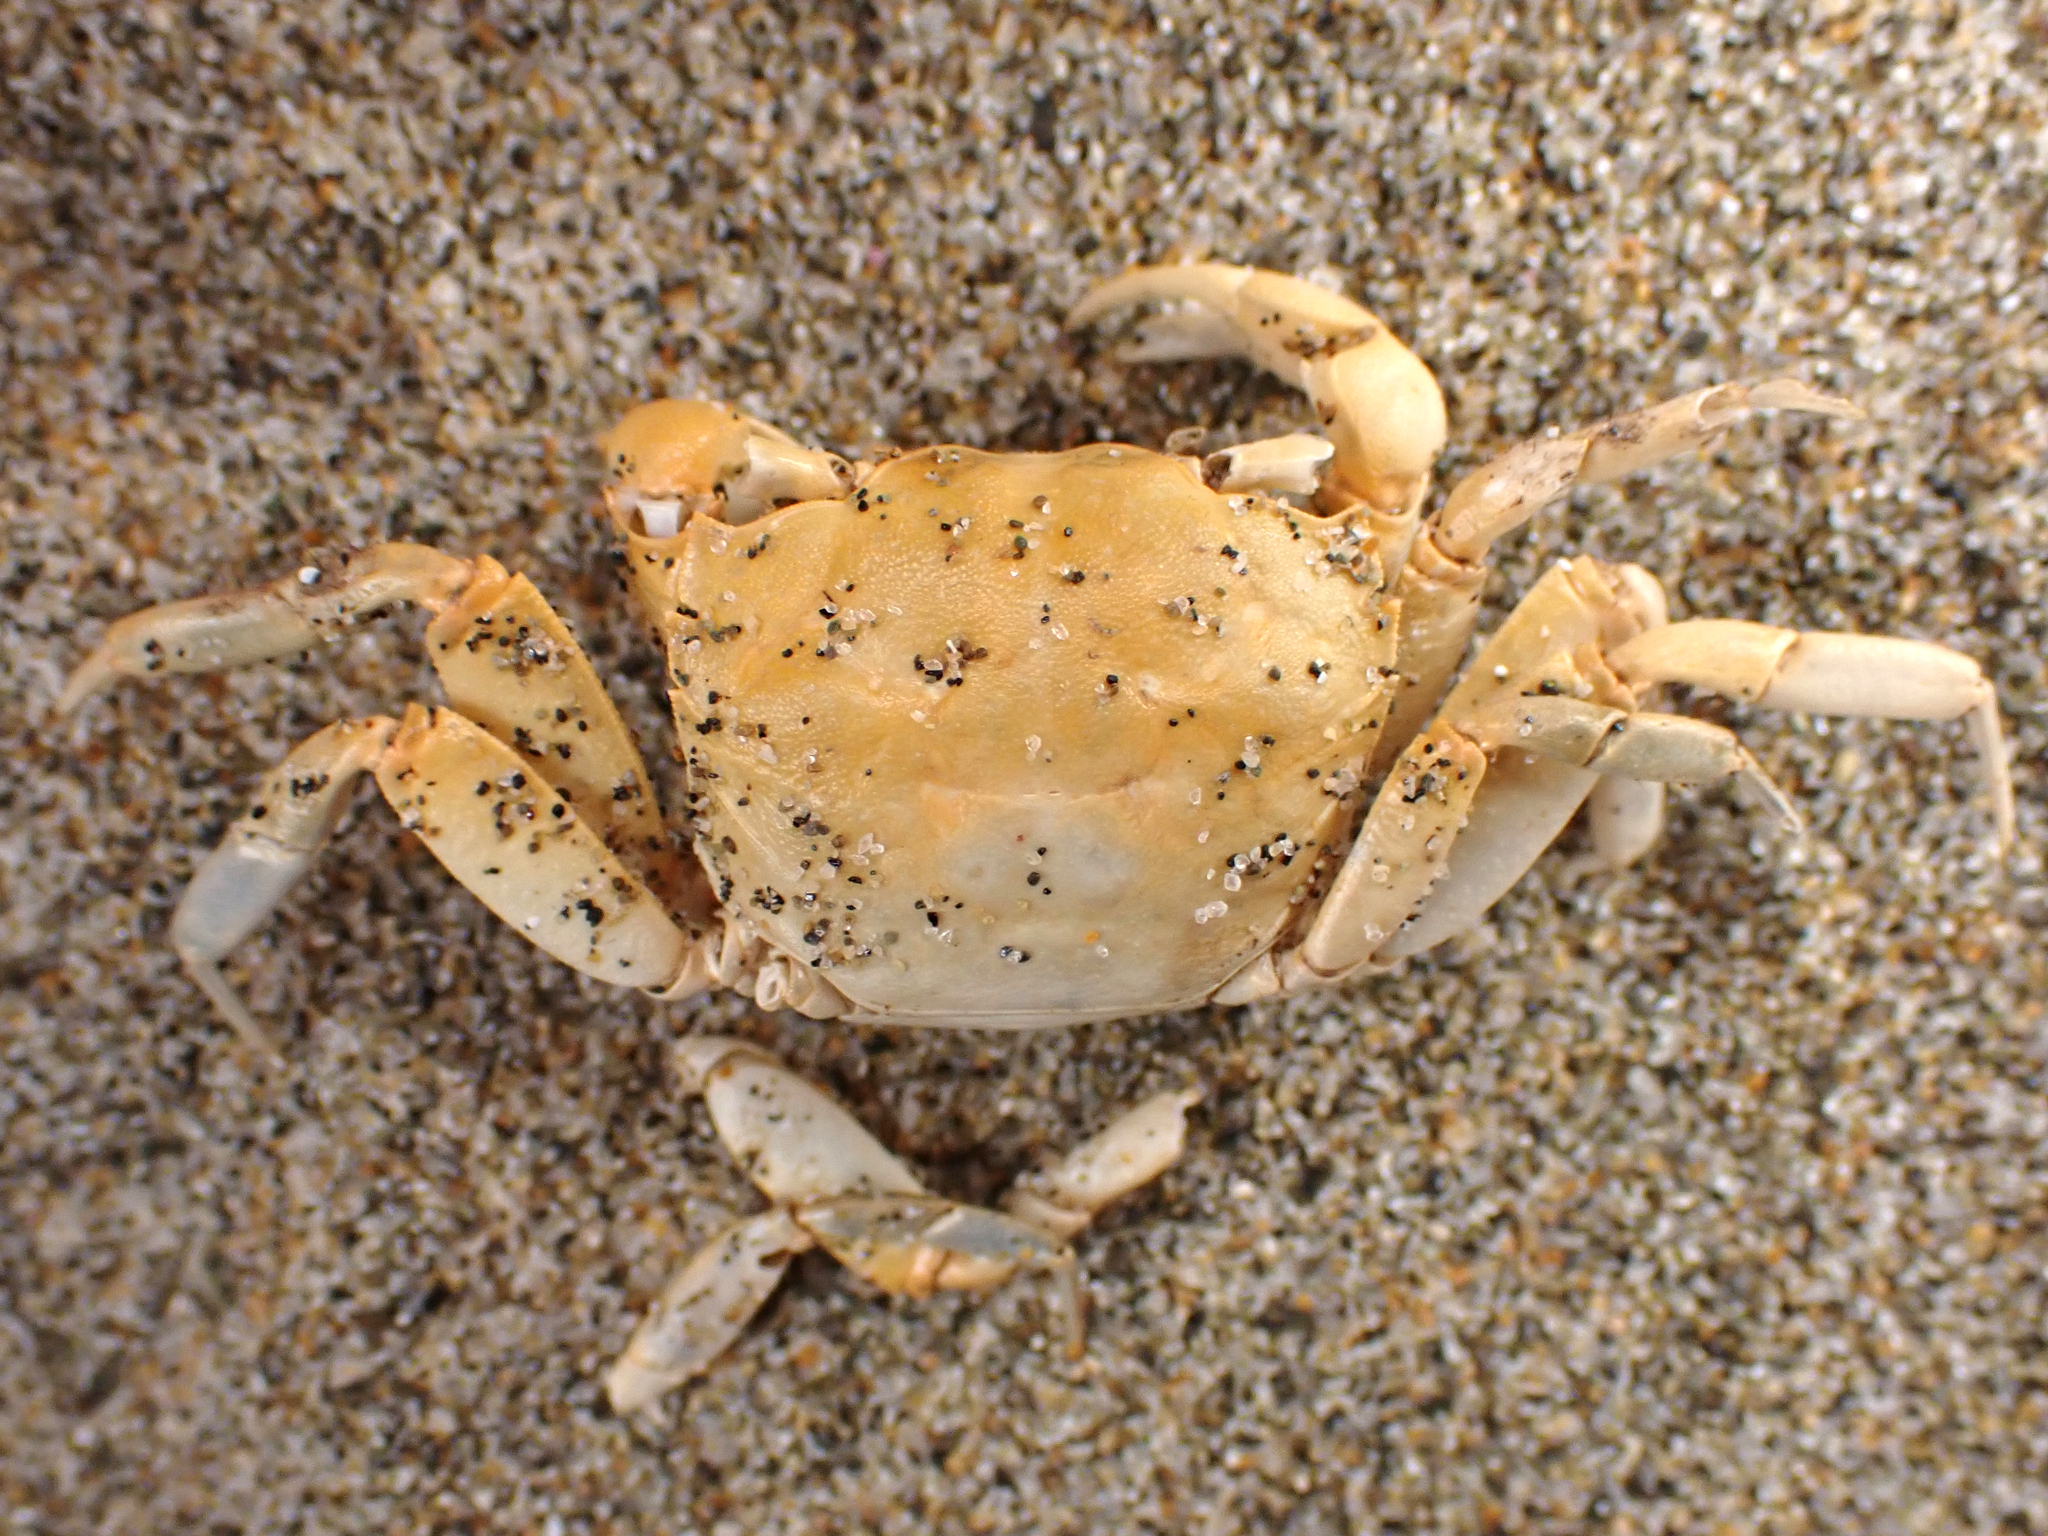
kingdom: Animalia
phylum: Arthropoda
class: Malacostraca
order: Decapoda
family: Macrophthalmidae
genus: Hemiplax
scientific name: Hemiplax hirtipes
